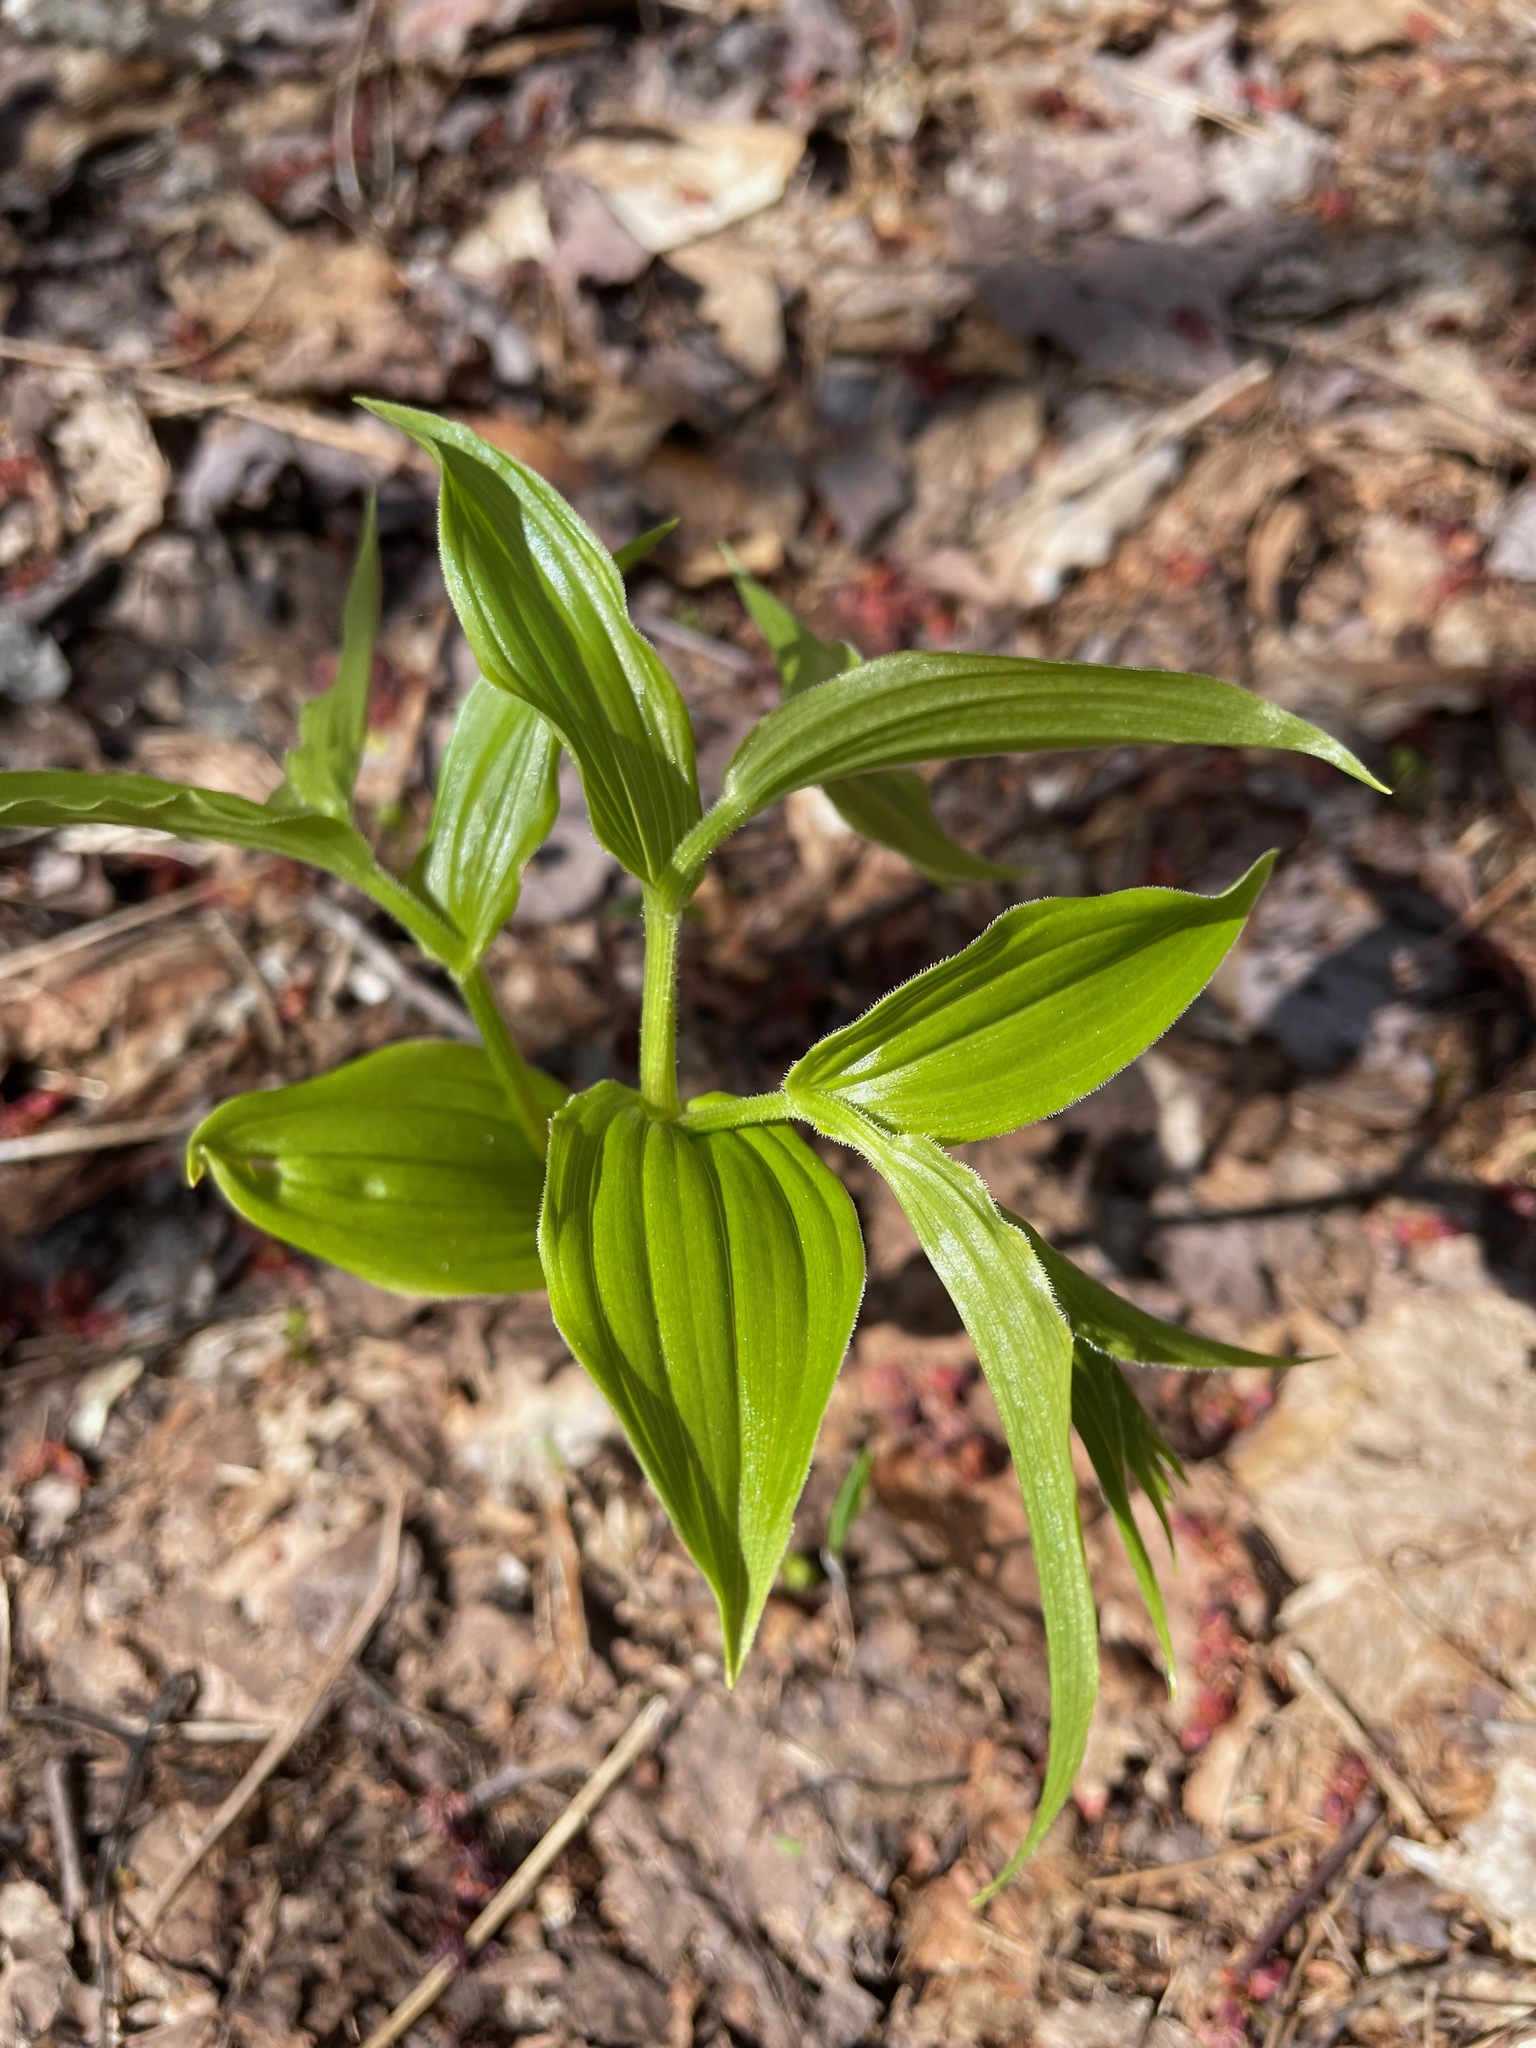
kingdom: Plantae
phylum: Tracheophyta
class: Liliopsida
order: Liliales
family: Liliaceae
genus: Streptopus
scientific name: Streptopus lanceolatus
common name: Rose mandarin
